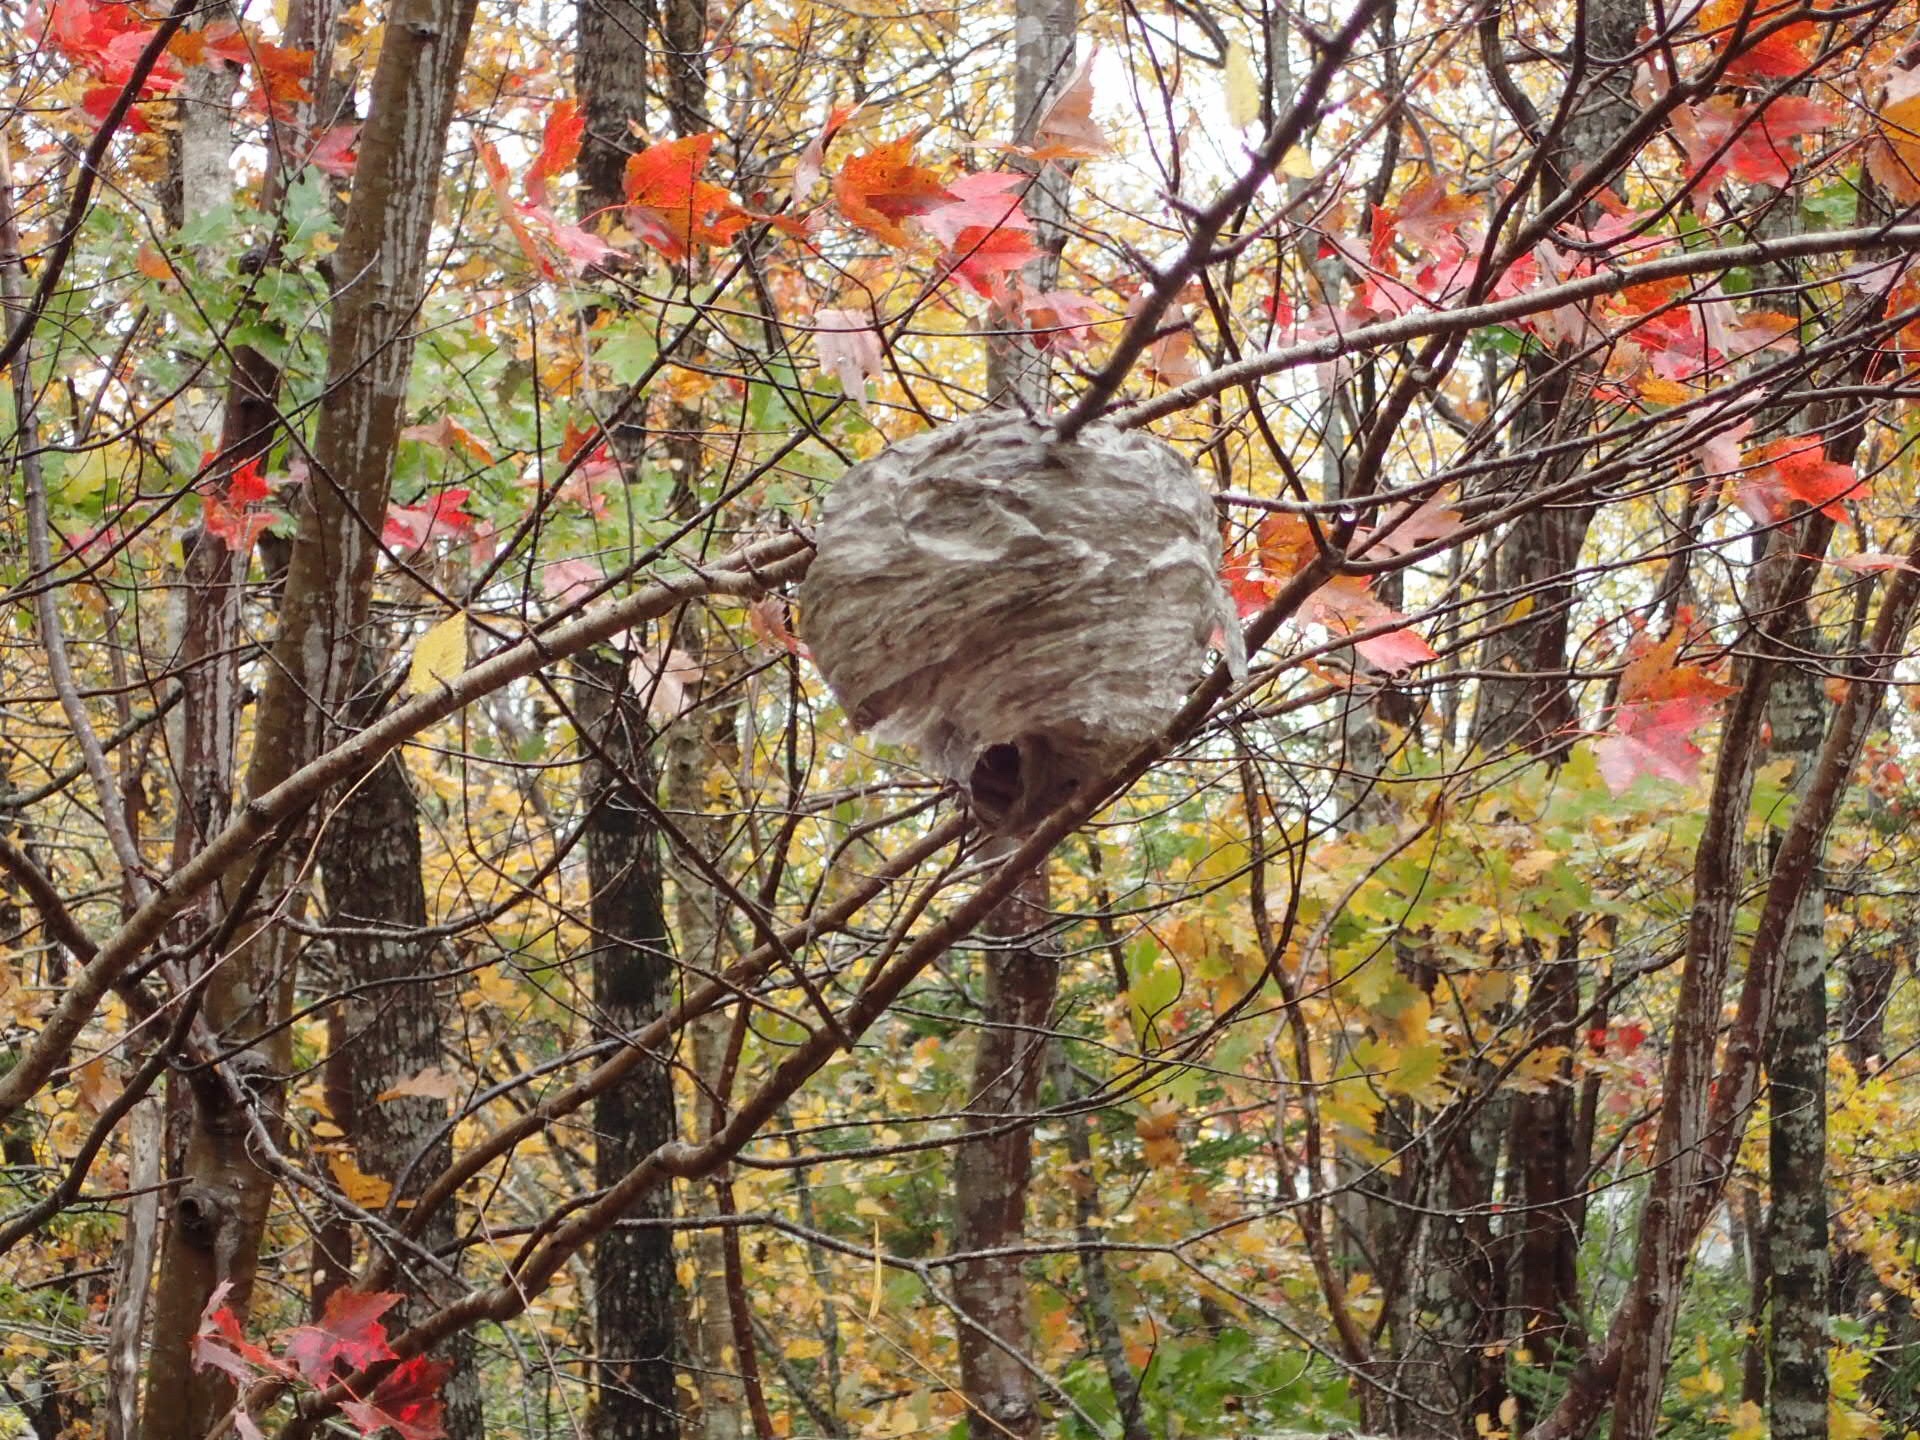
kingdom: Animalia
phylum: Arthropoda
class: Insecta
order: Hymenoptera
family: Vespidae
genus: Dolichovespula
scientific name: Dolichovespula
